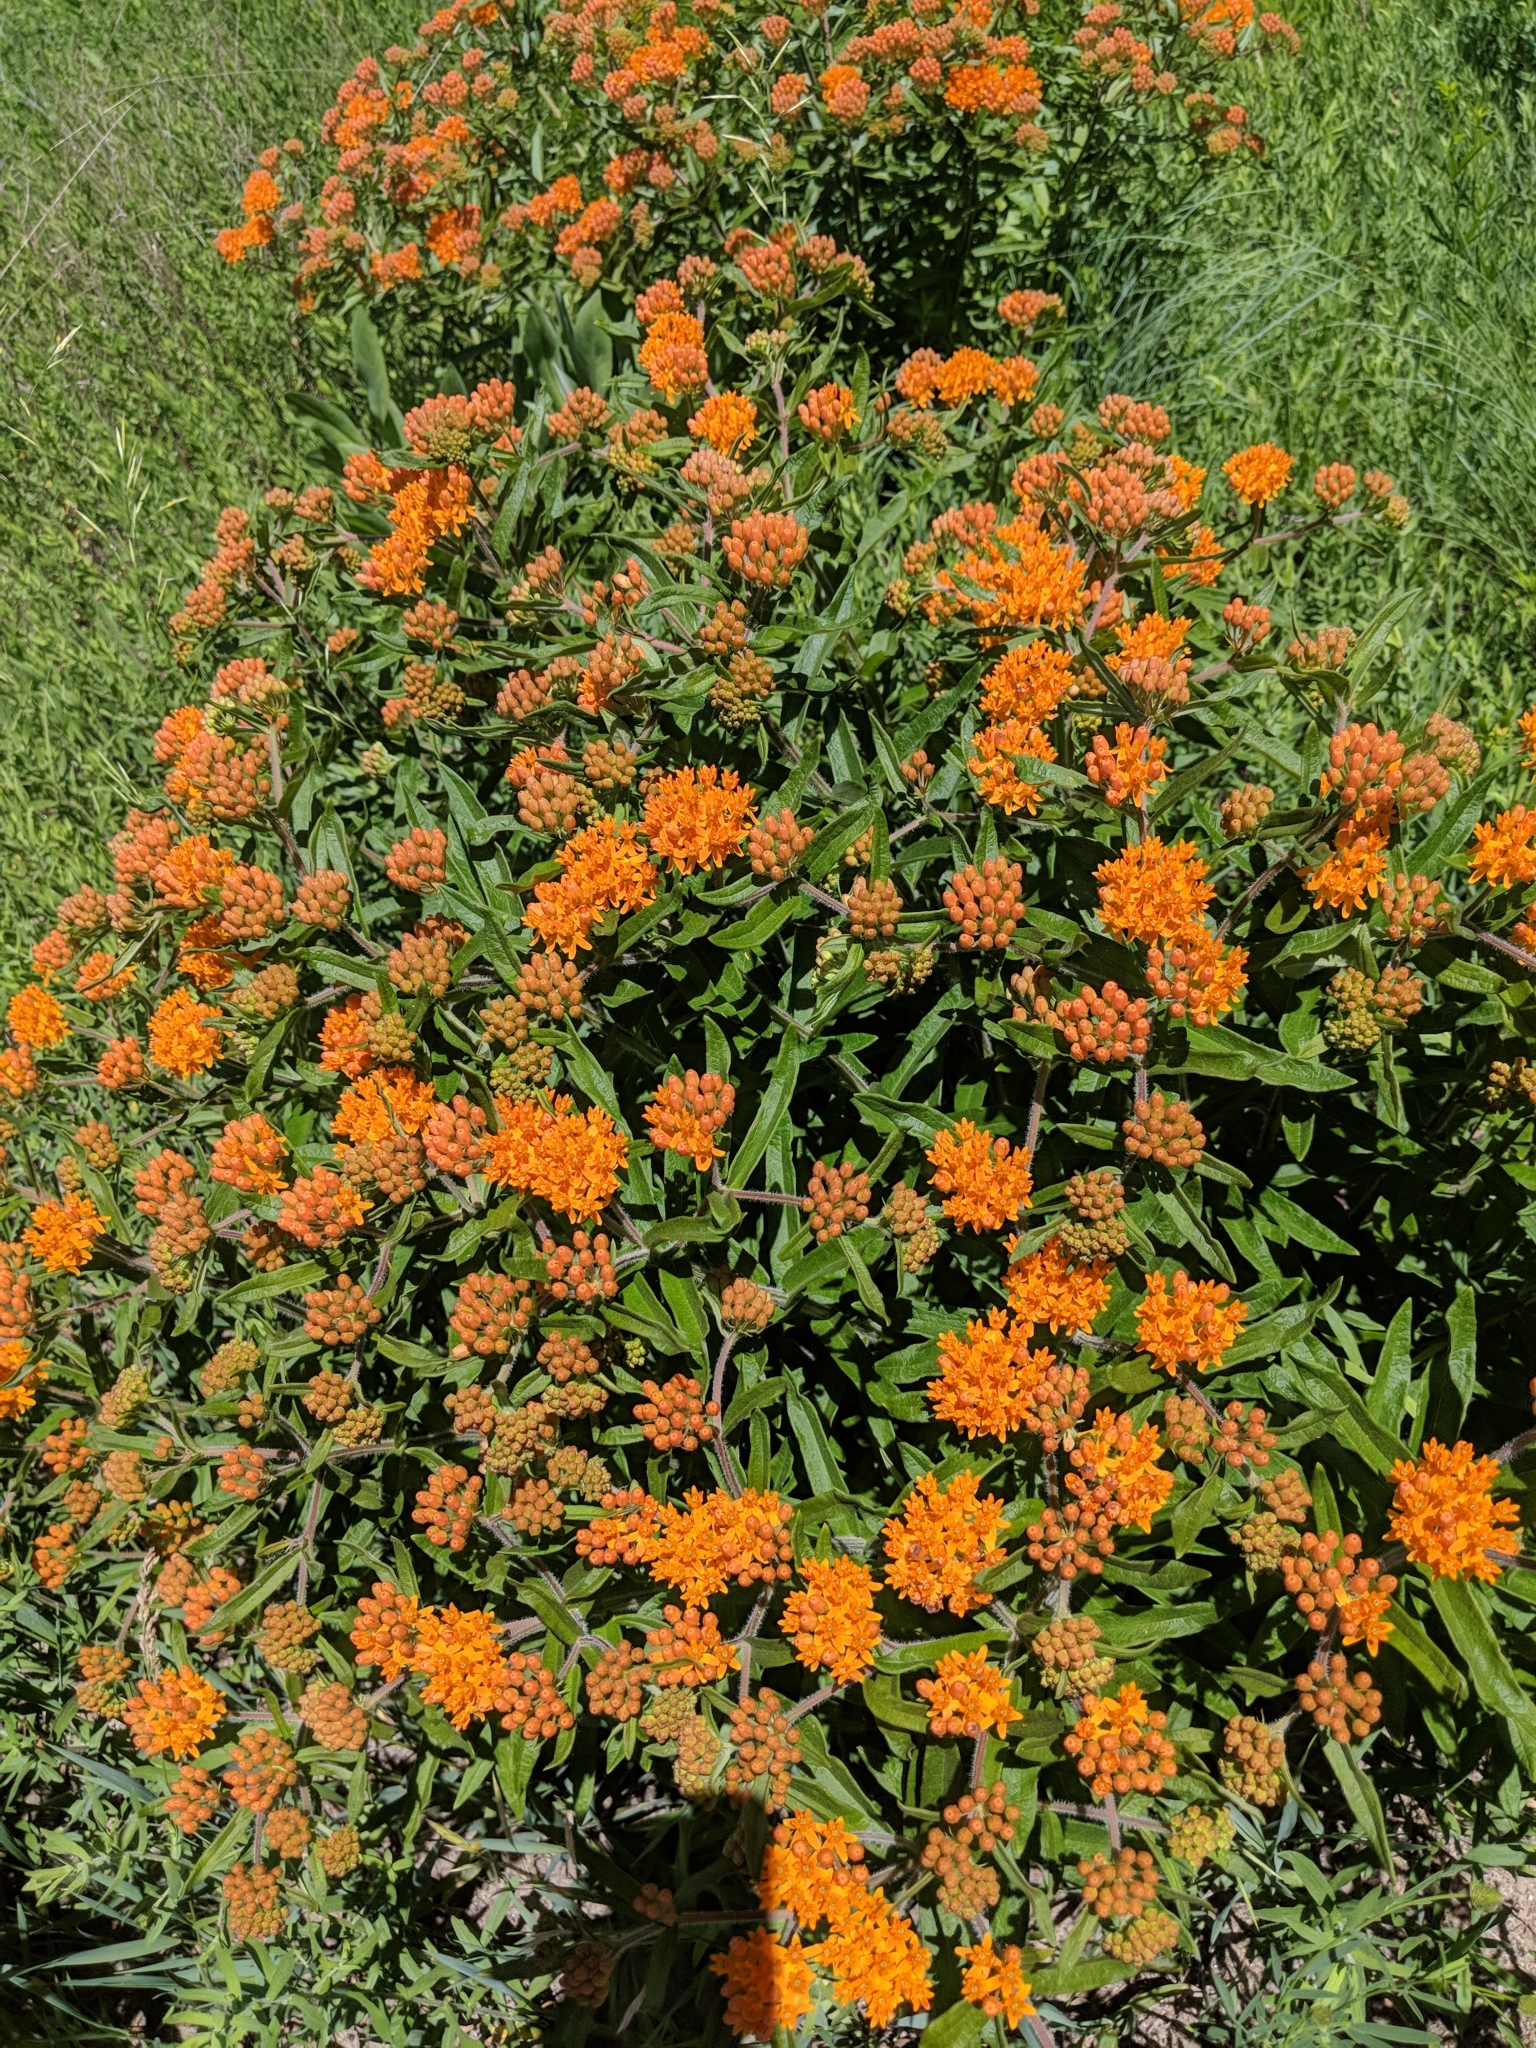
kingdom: Plantae
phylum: Tracheophyta
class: Magnoliopsida
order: Gentianales
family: Apocynaceae
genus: Asclepias
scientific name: Asclepias tuberosa
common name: Butterfly milkweed
